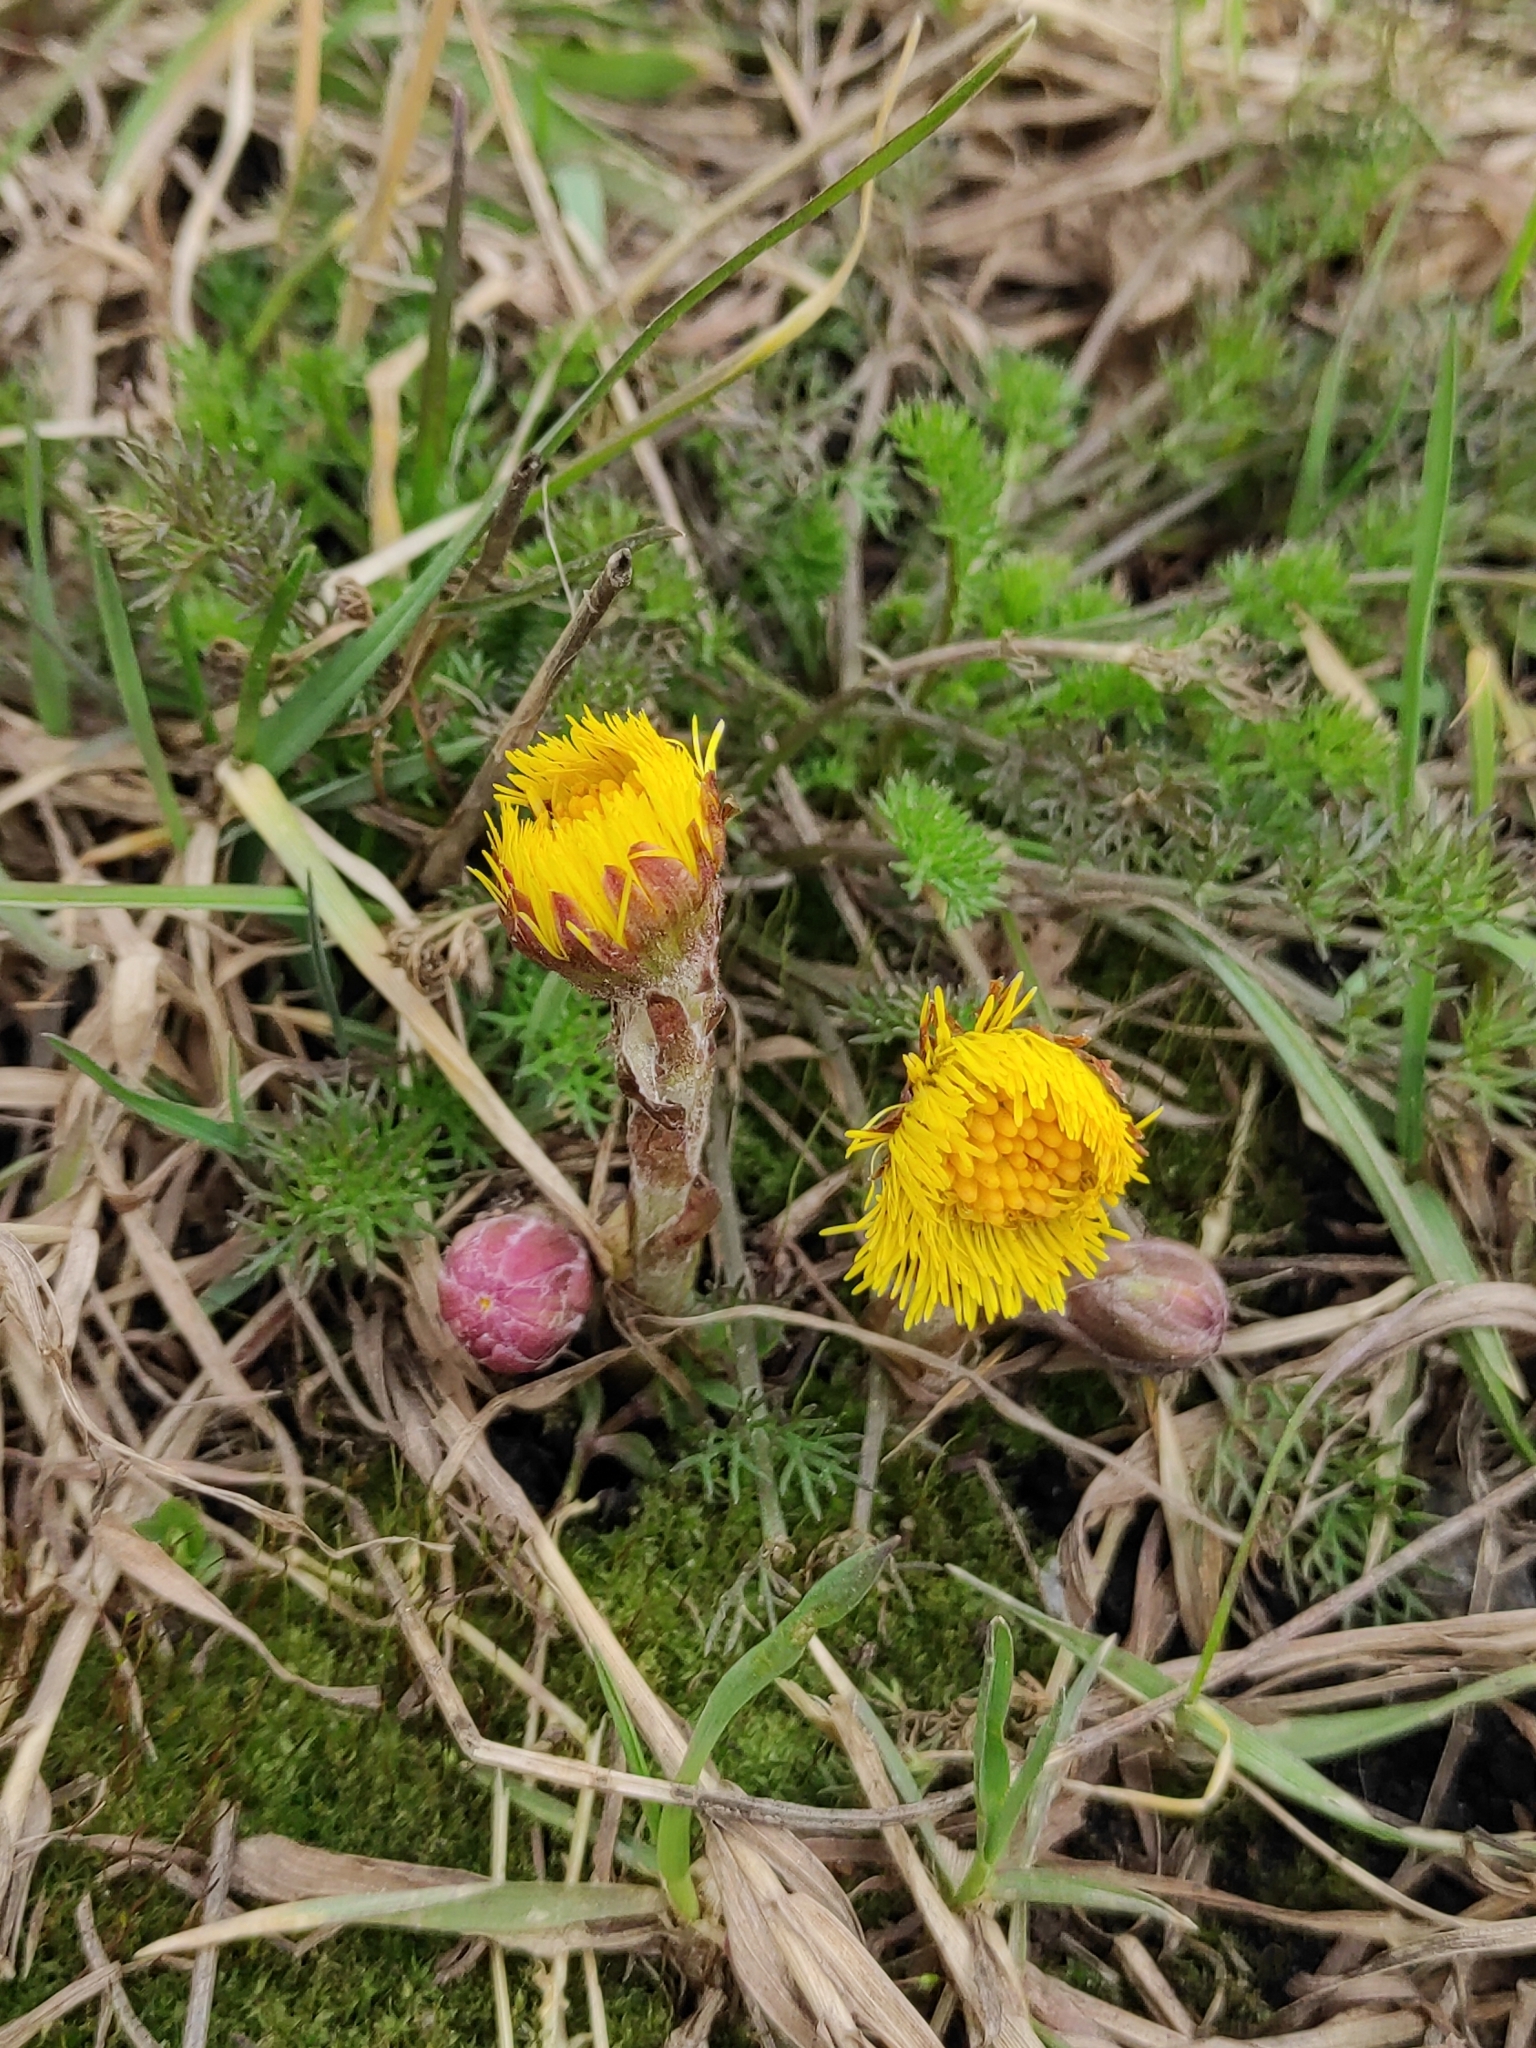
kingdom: Plantae
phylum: Tracheophyta
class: Magnoliopsida
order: Asterales
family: Asteraceae
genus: Tussilago
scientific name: Tussilago farfara
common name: Coltsfoot
